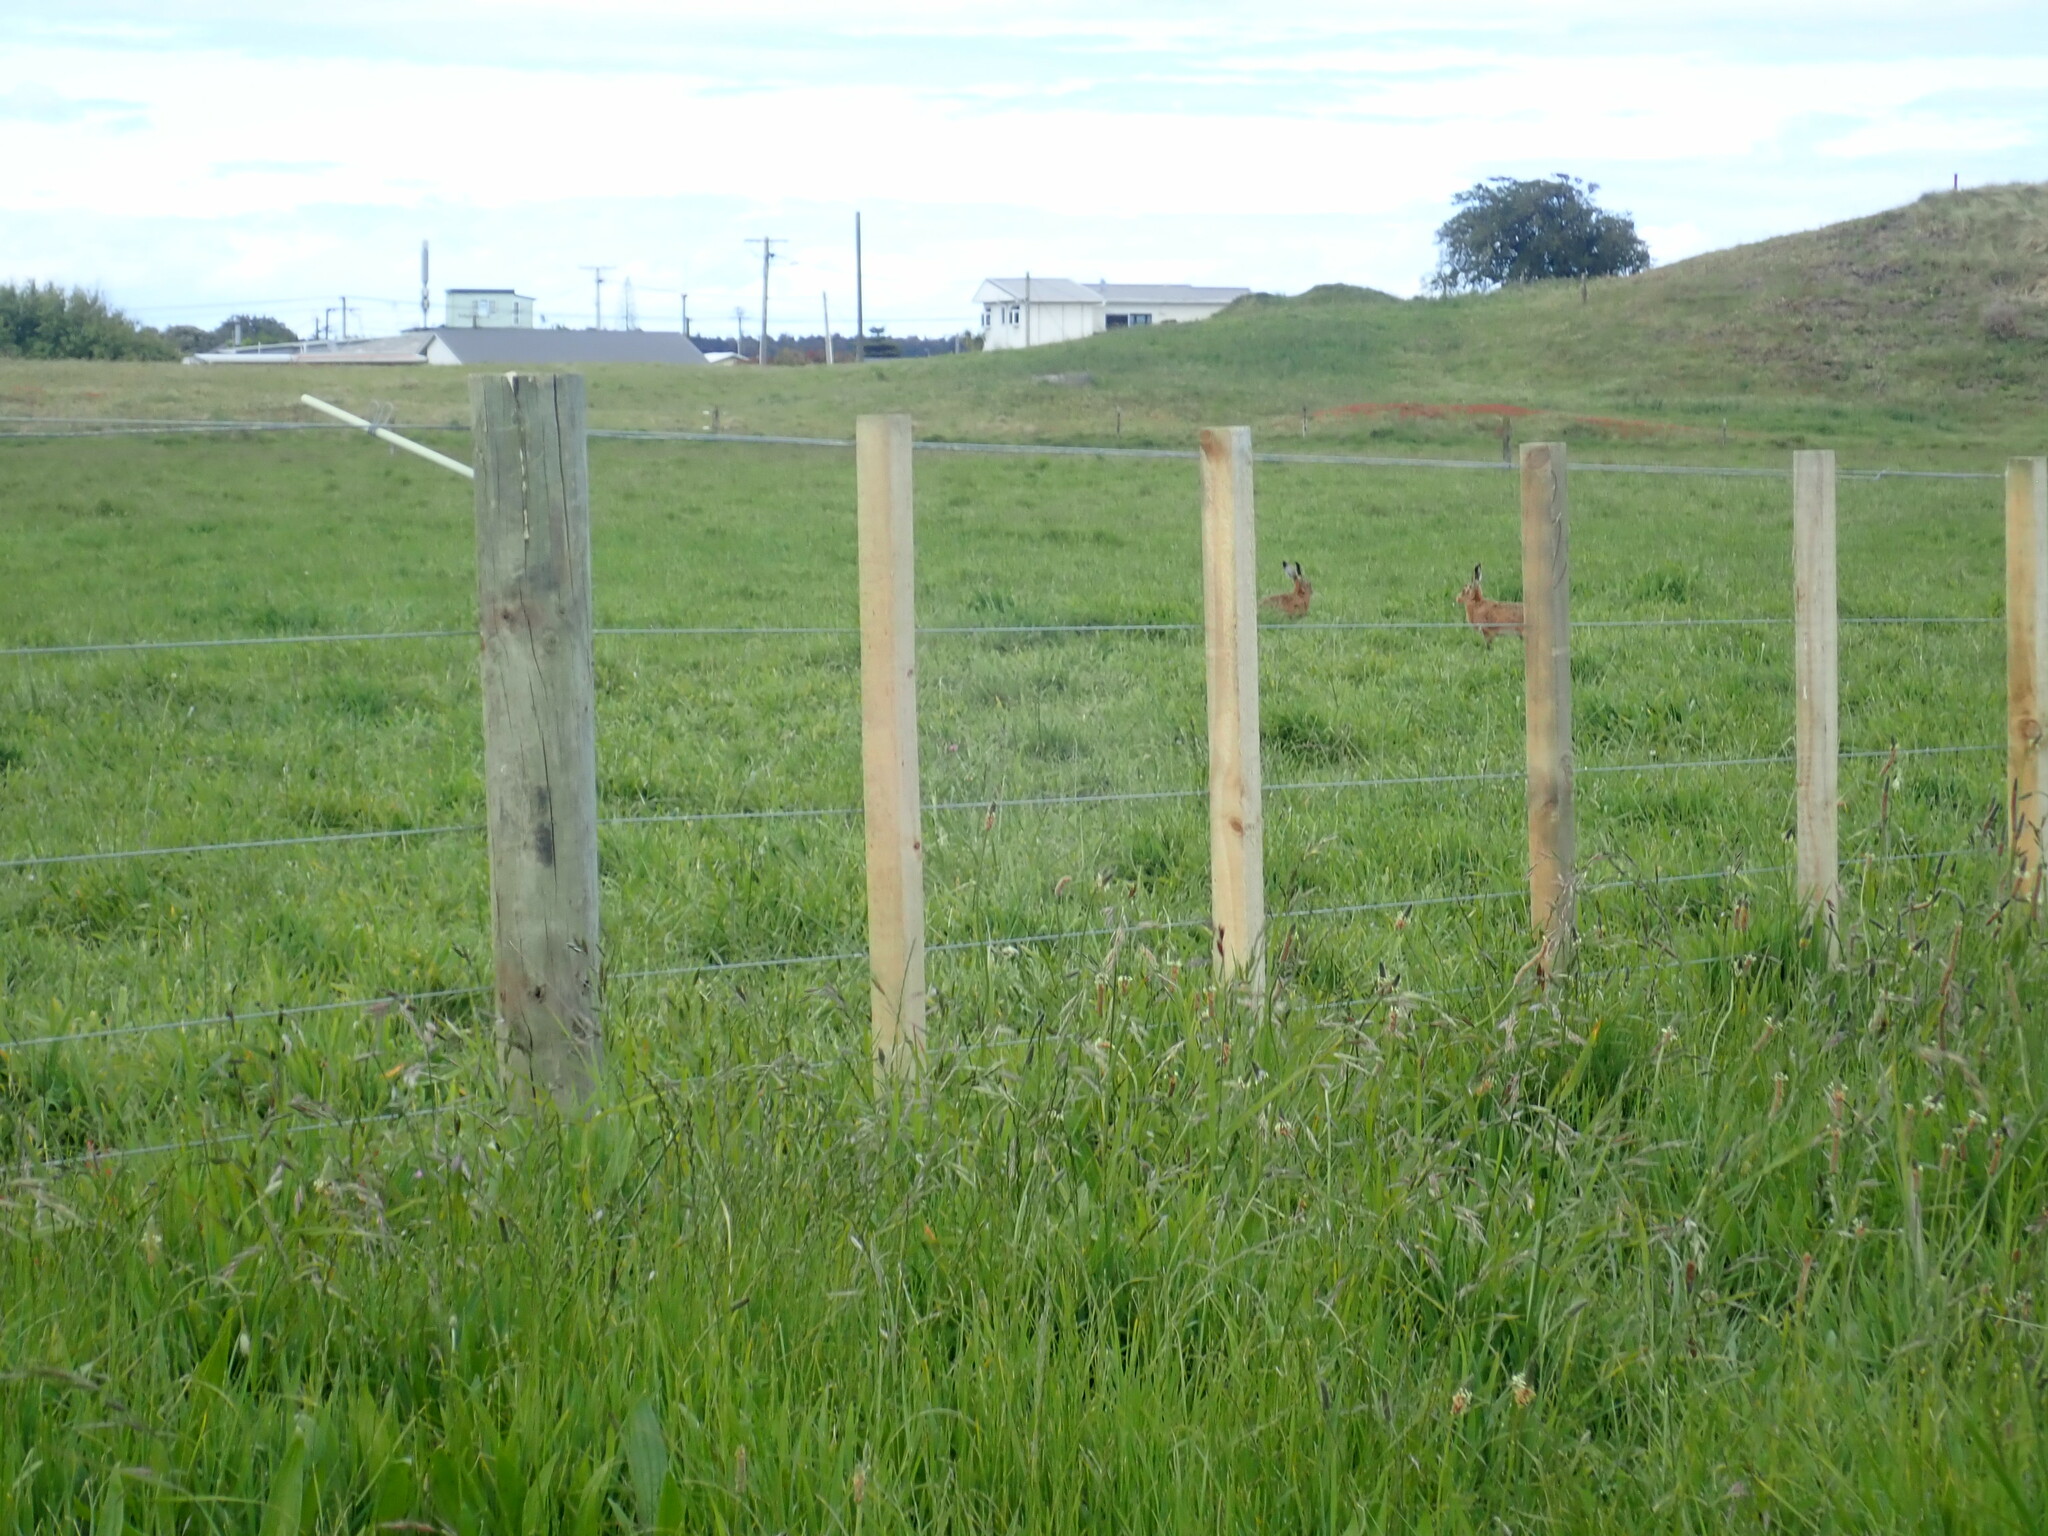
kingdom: Animalia
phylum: Chordata
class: Mammalia
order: Lagomorpha
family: Leporidae
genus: Lepus
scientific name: Lepus europaeus
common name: European hare
